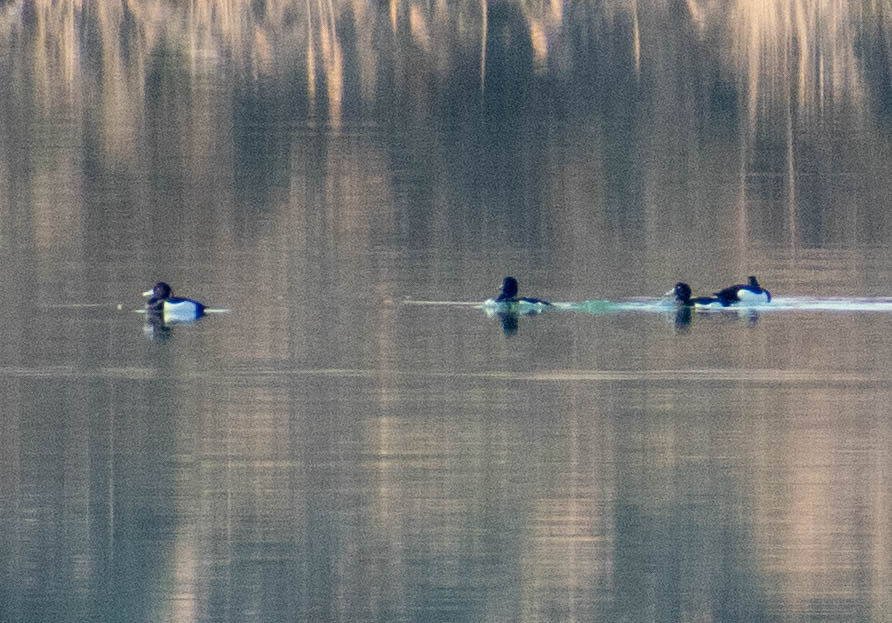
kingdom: Animalia
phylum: Chordata
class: Aves
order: Anseriformes
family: Anatidae
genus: Aythya
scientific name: Aythya fuligula
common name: Tufted duck
